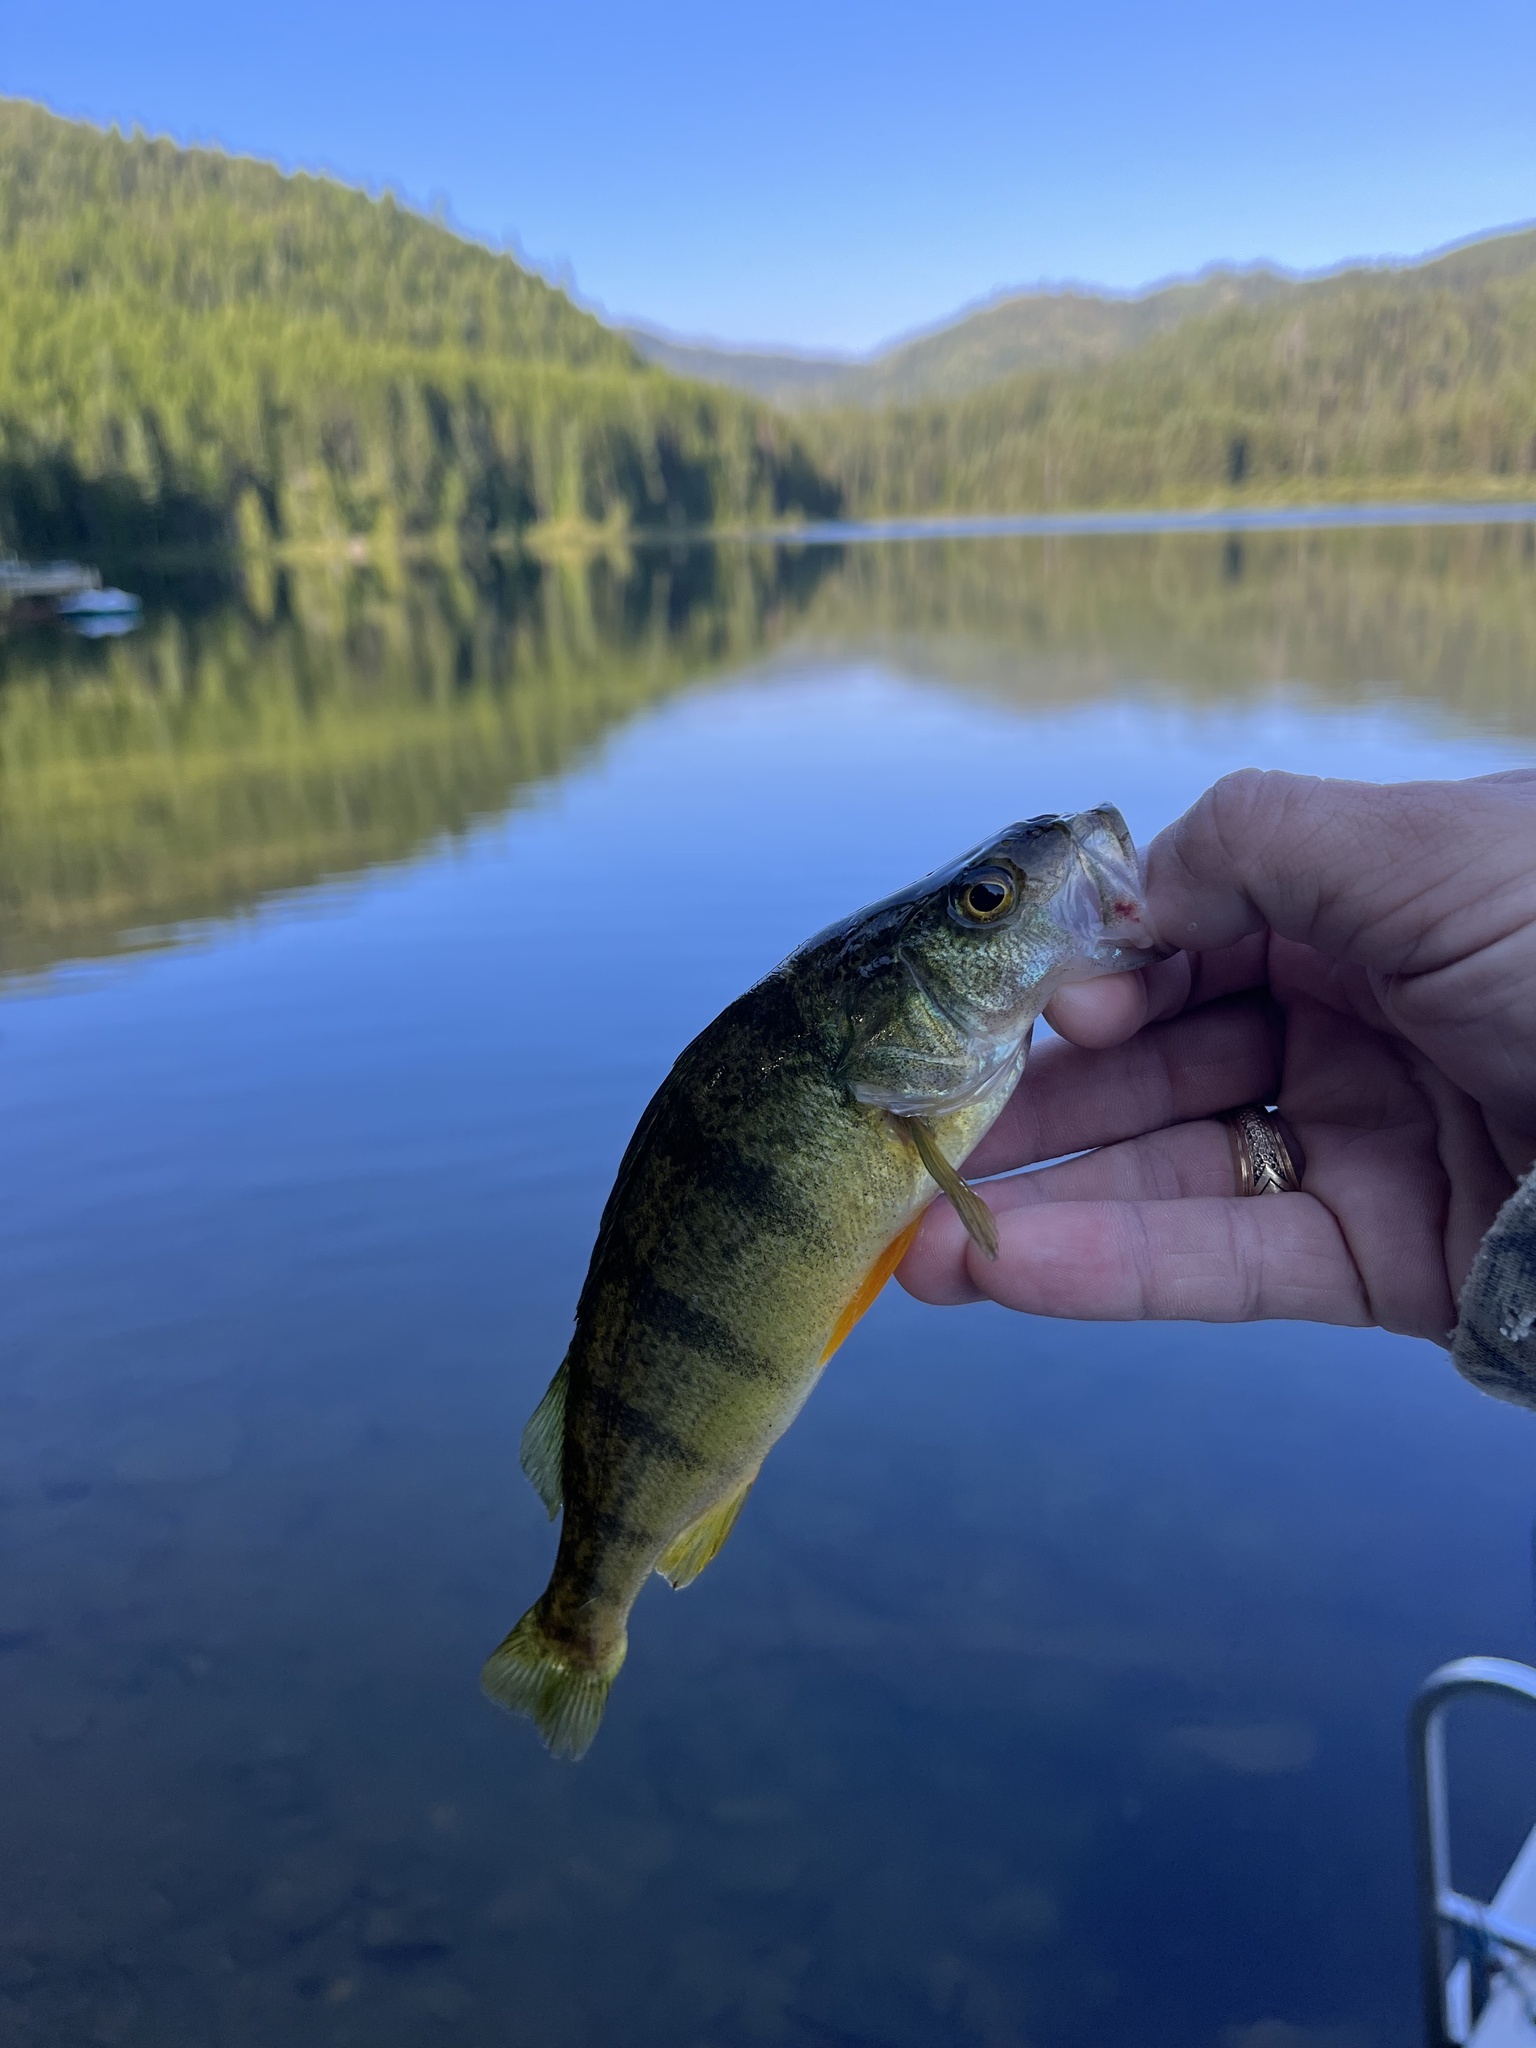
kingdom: Animalia
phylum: Chordata
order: Perciformes
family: Percidae
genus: Perca
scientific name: Perca flavescens
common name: Yellow perch
